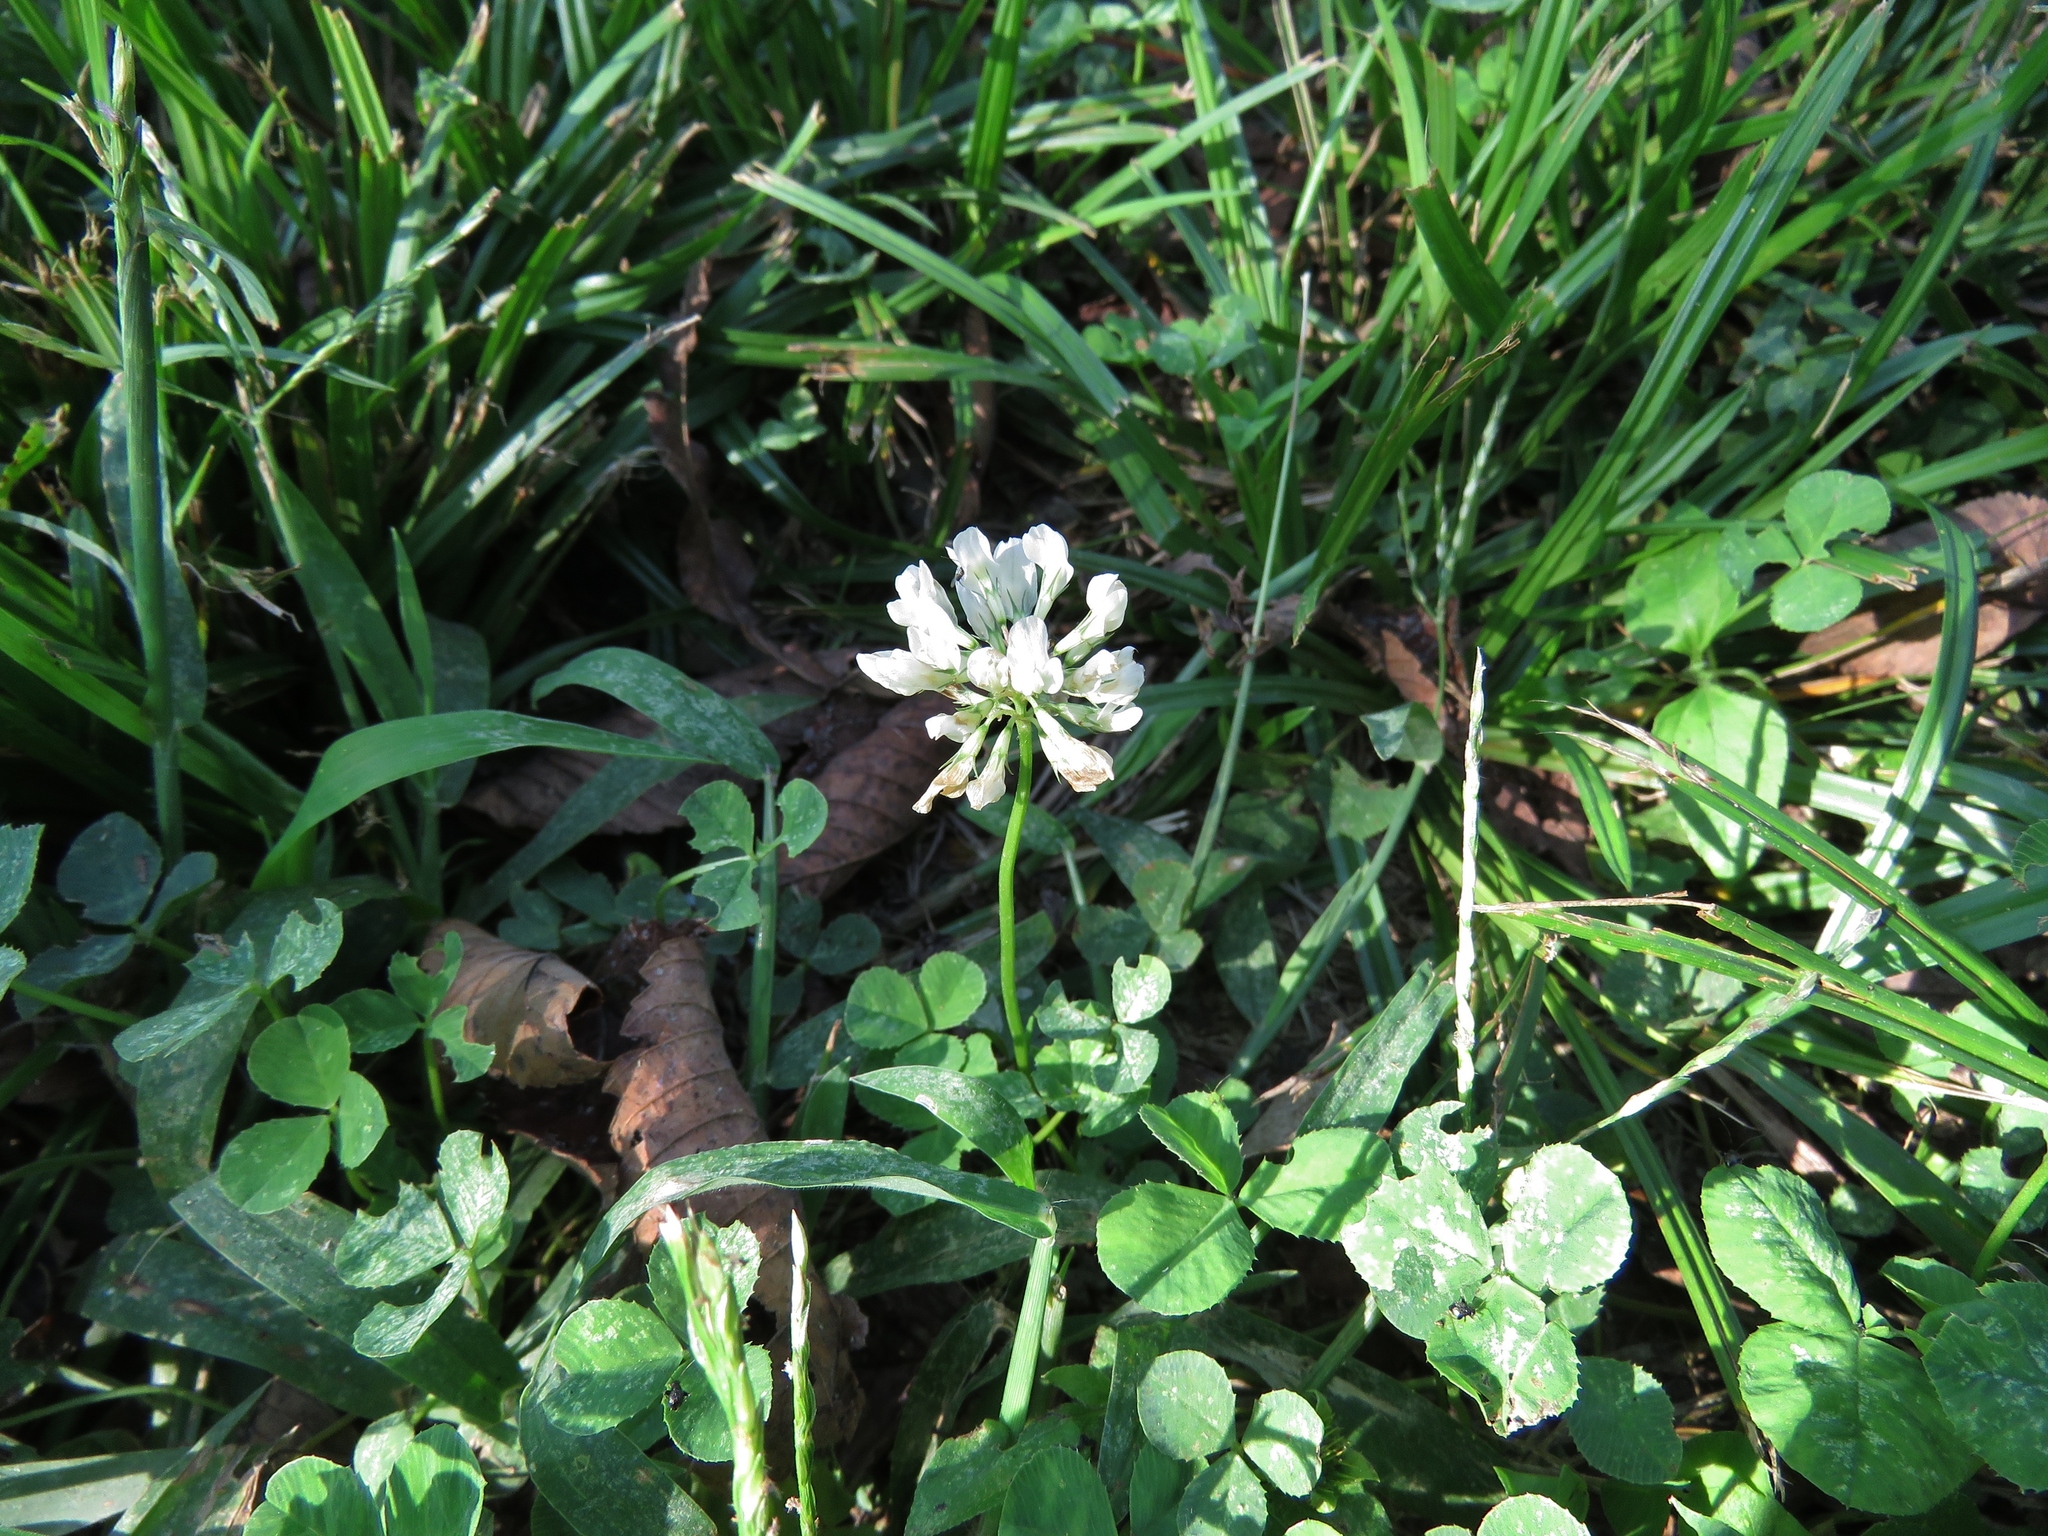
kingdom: Plantae
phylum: Tracheophyta
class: Magnoliopsida
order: Fabales
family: Fabaceae
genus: Trifolium
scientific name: Trifolium repens
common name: White clover
